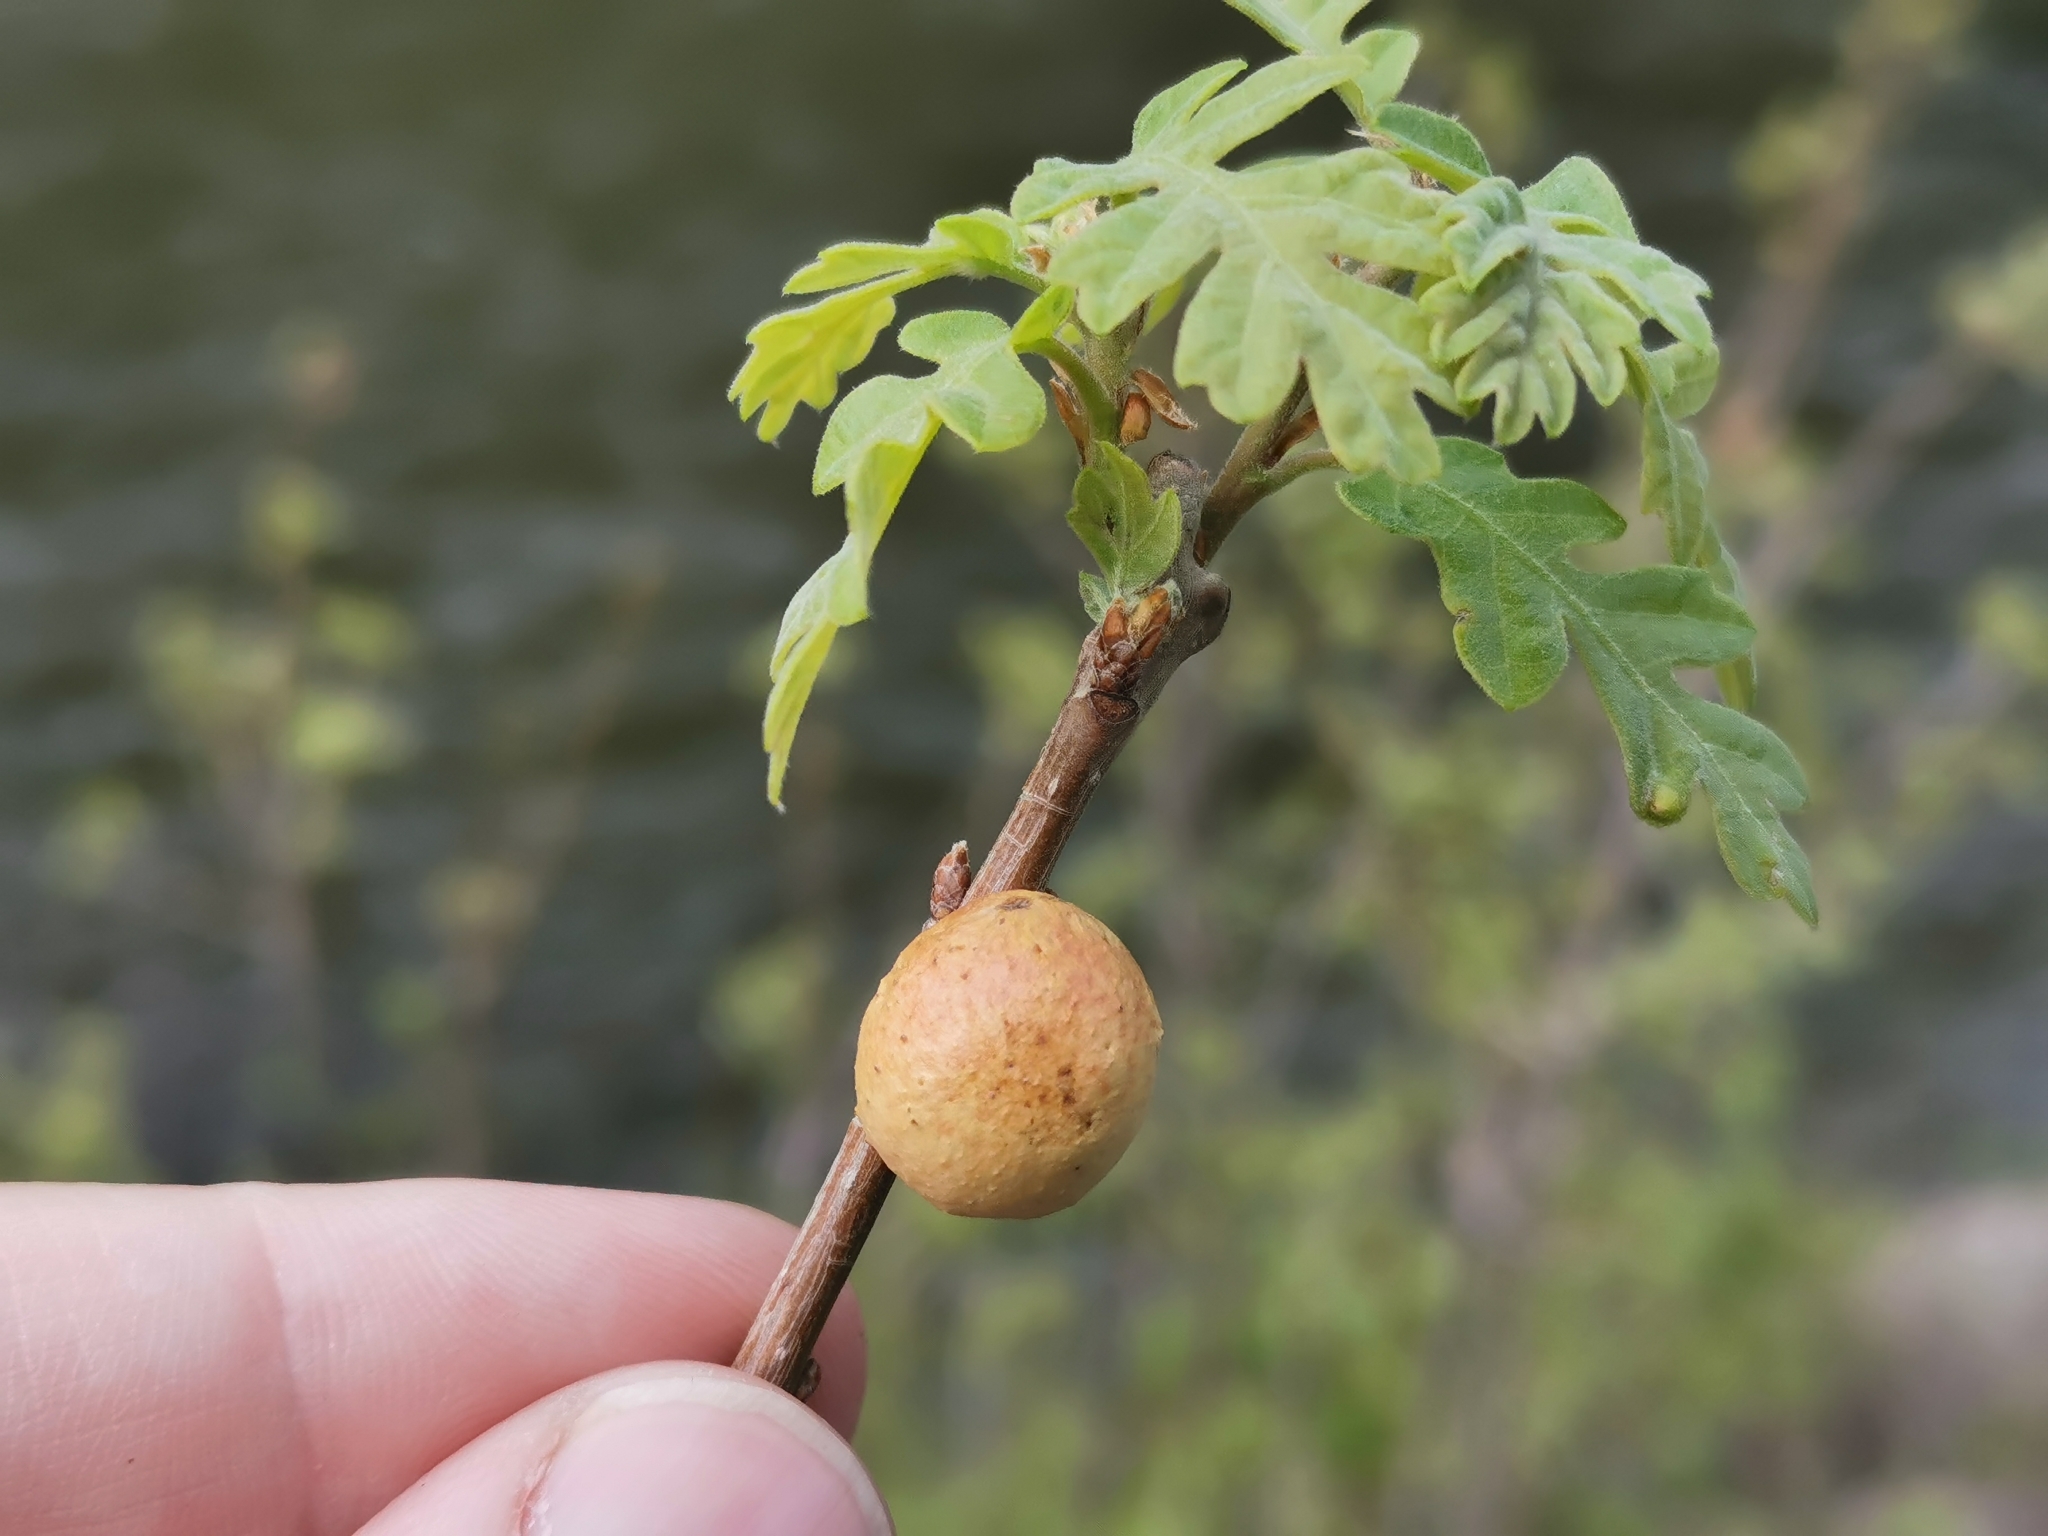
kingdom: Animalia
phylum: Arthropoda
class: Insecta
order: Hymenoptera
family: Cynipidae
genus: Disholcaspis
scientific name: Disholcaspis
